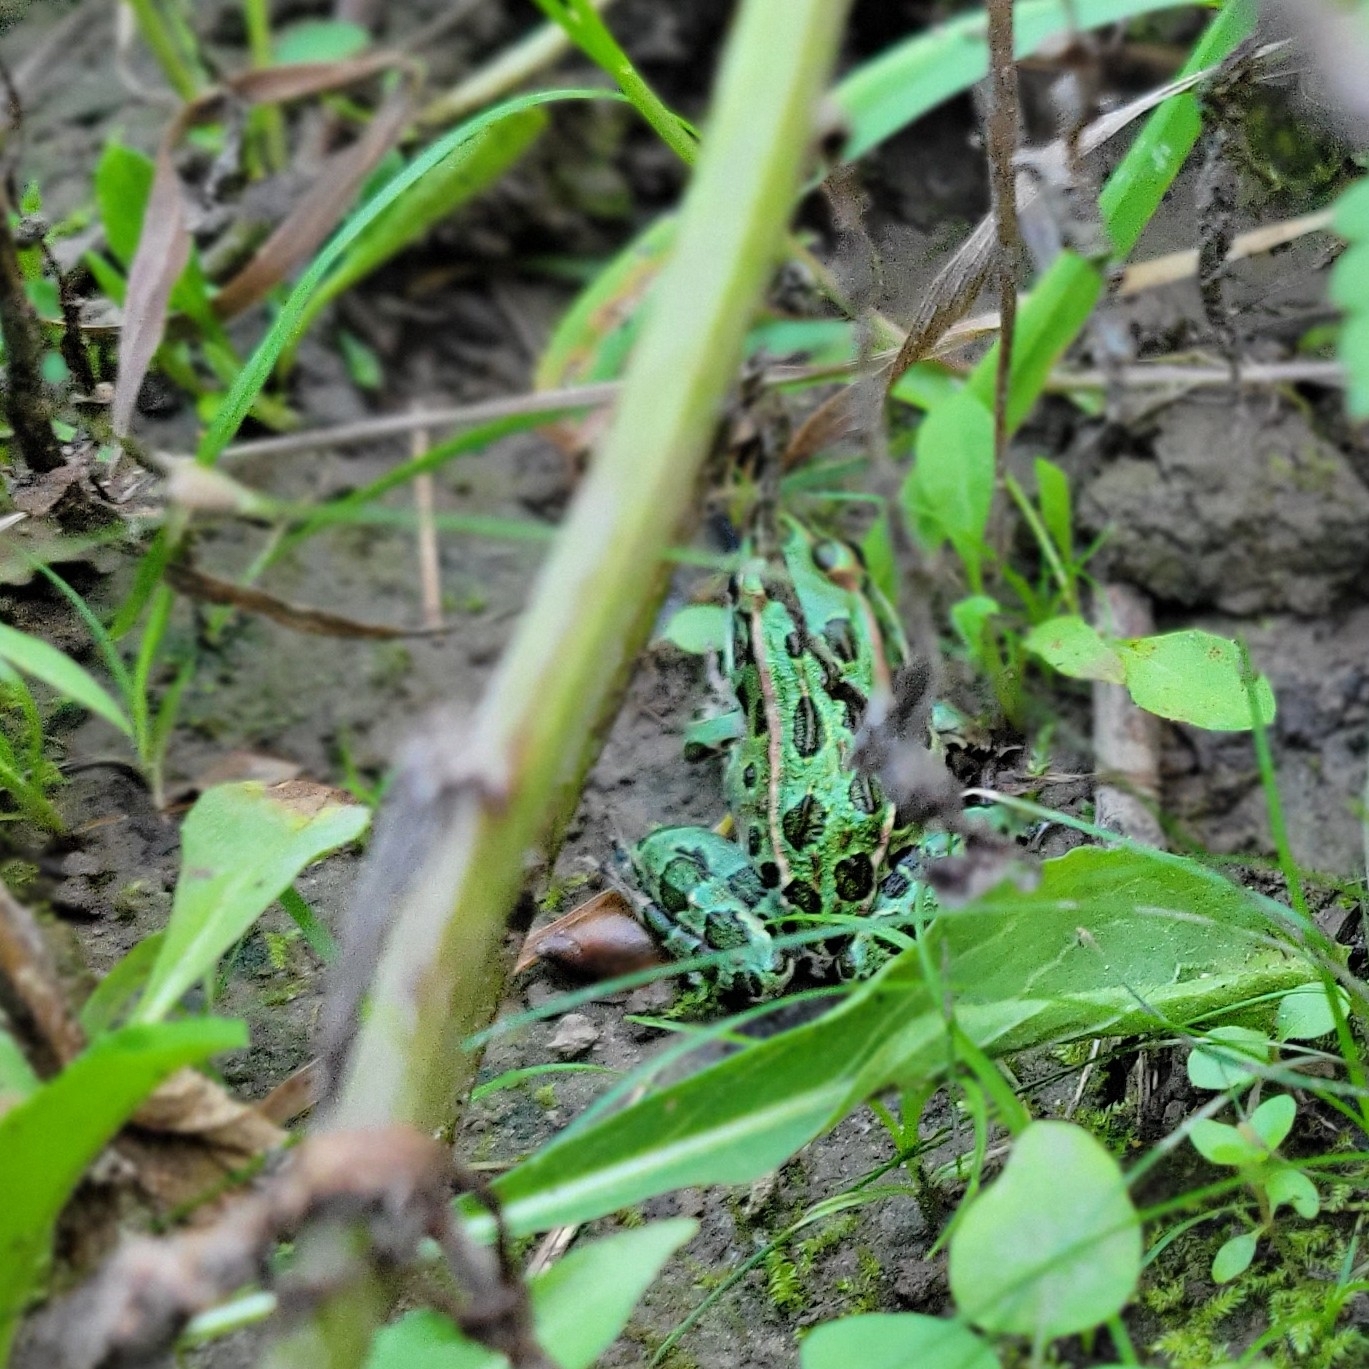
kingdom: Animalia
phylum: Chordata
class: Amphibia
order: Anura
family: Ranidae
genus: Lithobates
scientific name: Lithobates pipiens
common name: Northern leopard frog
